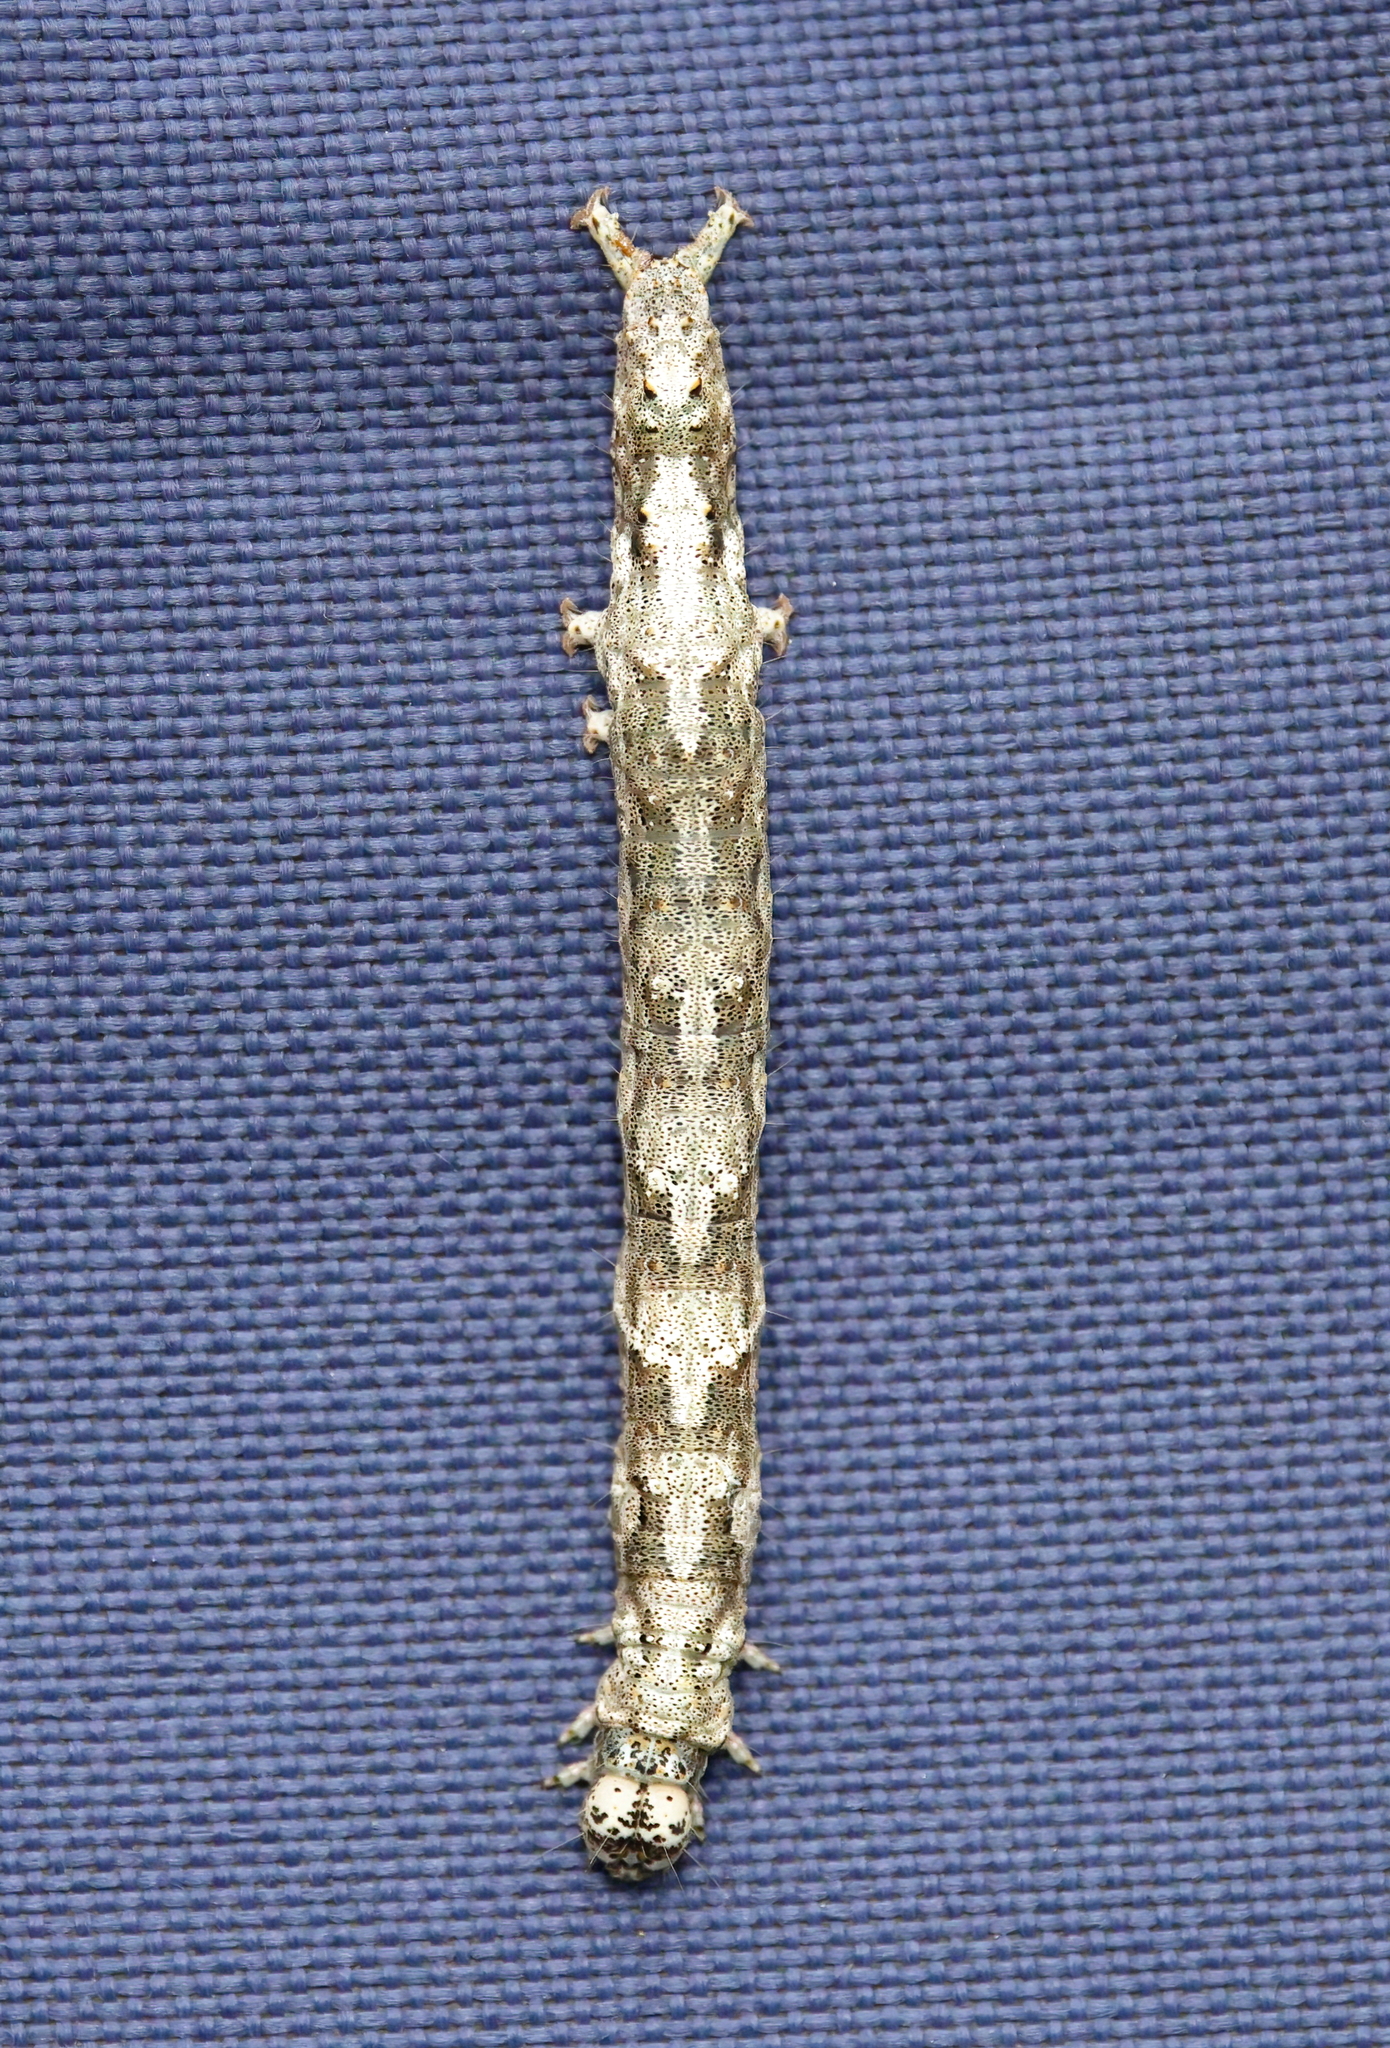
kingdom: Animalia
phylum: Arthropoda
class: Insecta
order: Lepidoptera
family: Erebidae
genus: Metria
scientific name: Metria amella
